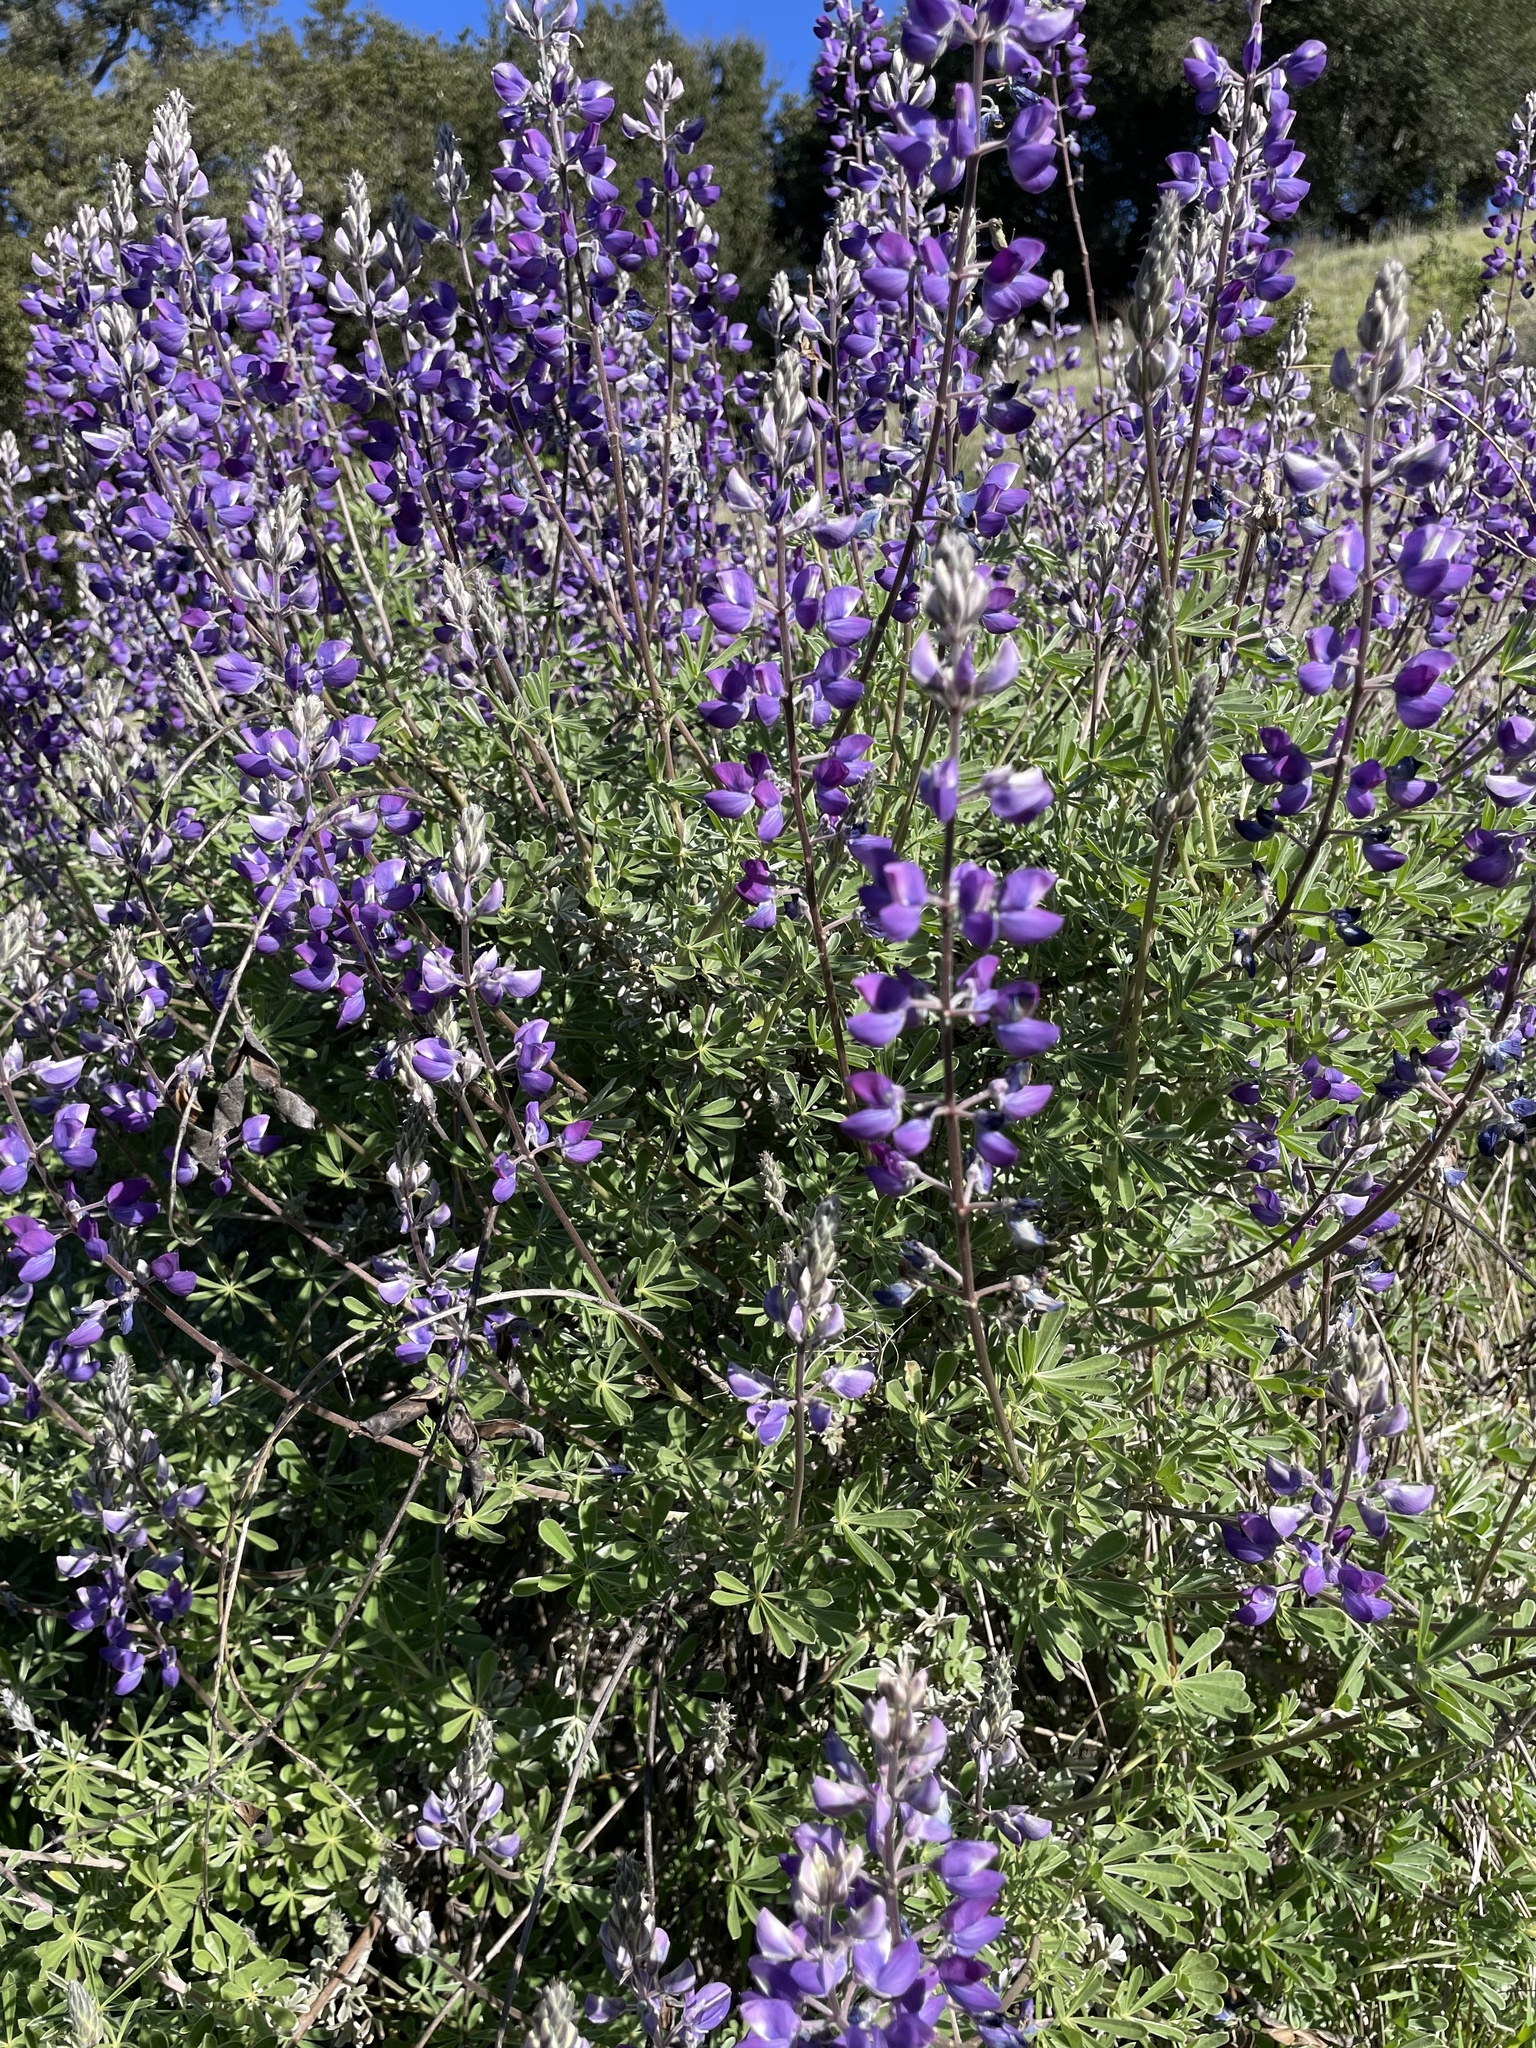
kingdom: Plantae
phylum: Tracheophyta
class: Magnoliopsida
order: Fabales
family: Fabaceae
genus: Lupinus
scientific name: Lupinus albifrons
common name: Foothill lupine
